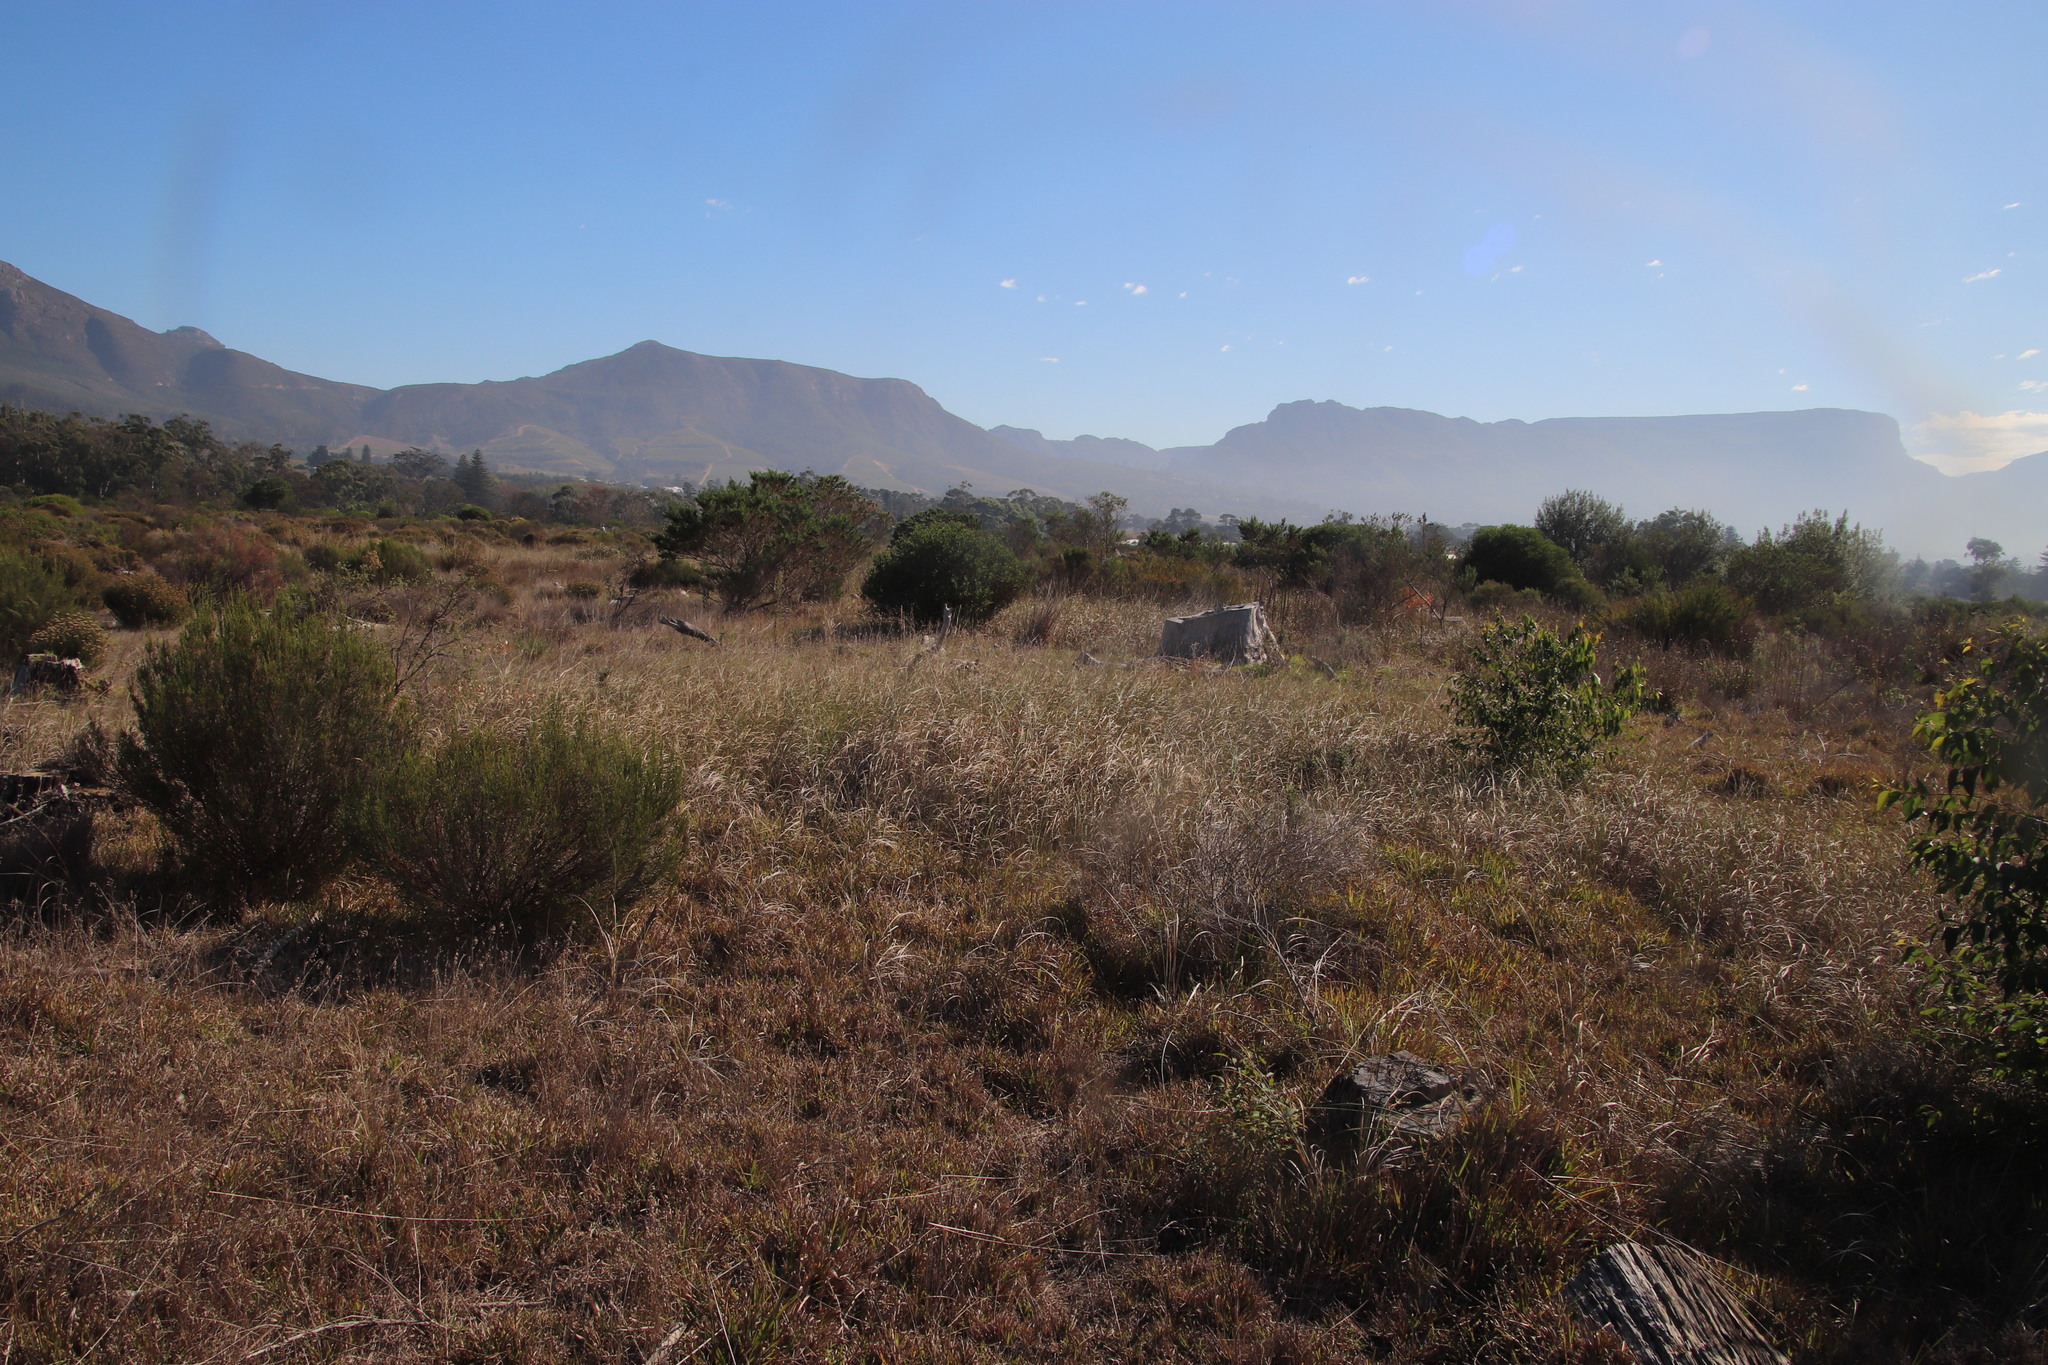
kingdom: Plantae
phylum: Tracheophyta
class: Liliopsida
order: Poales
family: Poaceae
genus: Cenchrus
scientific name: Cenchrus caudatus
